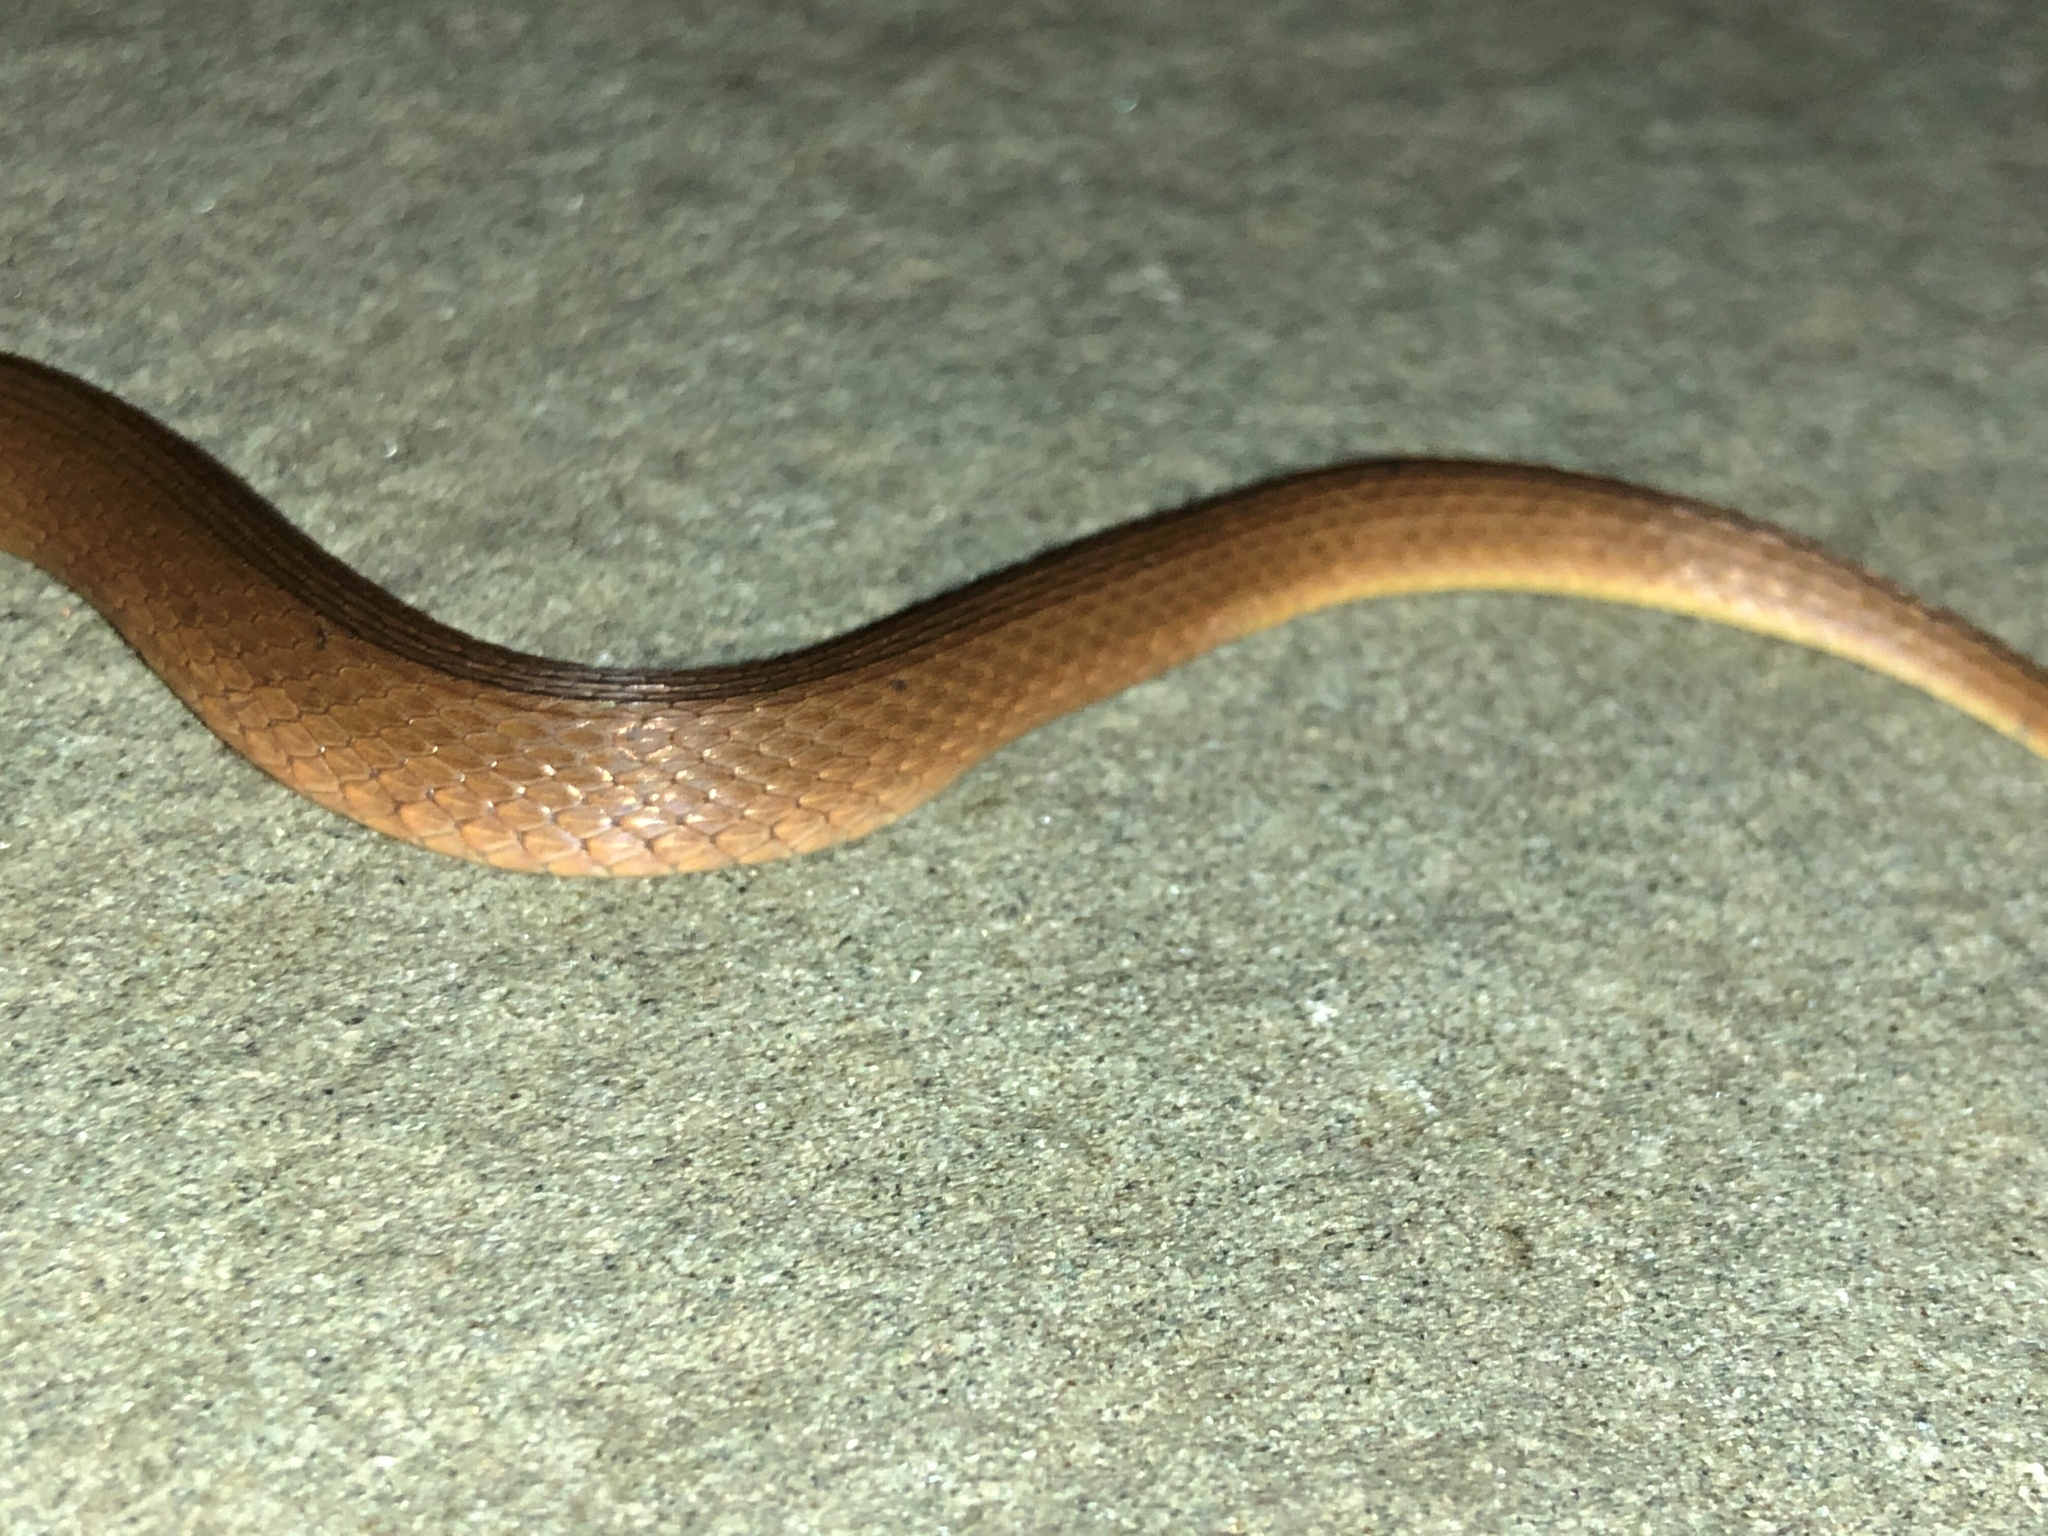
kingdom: Animalia
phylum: Chordata
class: Squamata
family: Colubridae
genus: Haldea
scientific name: Haldea striatula
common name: Rough earth snake
